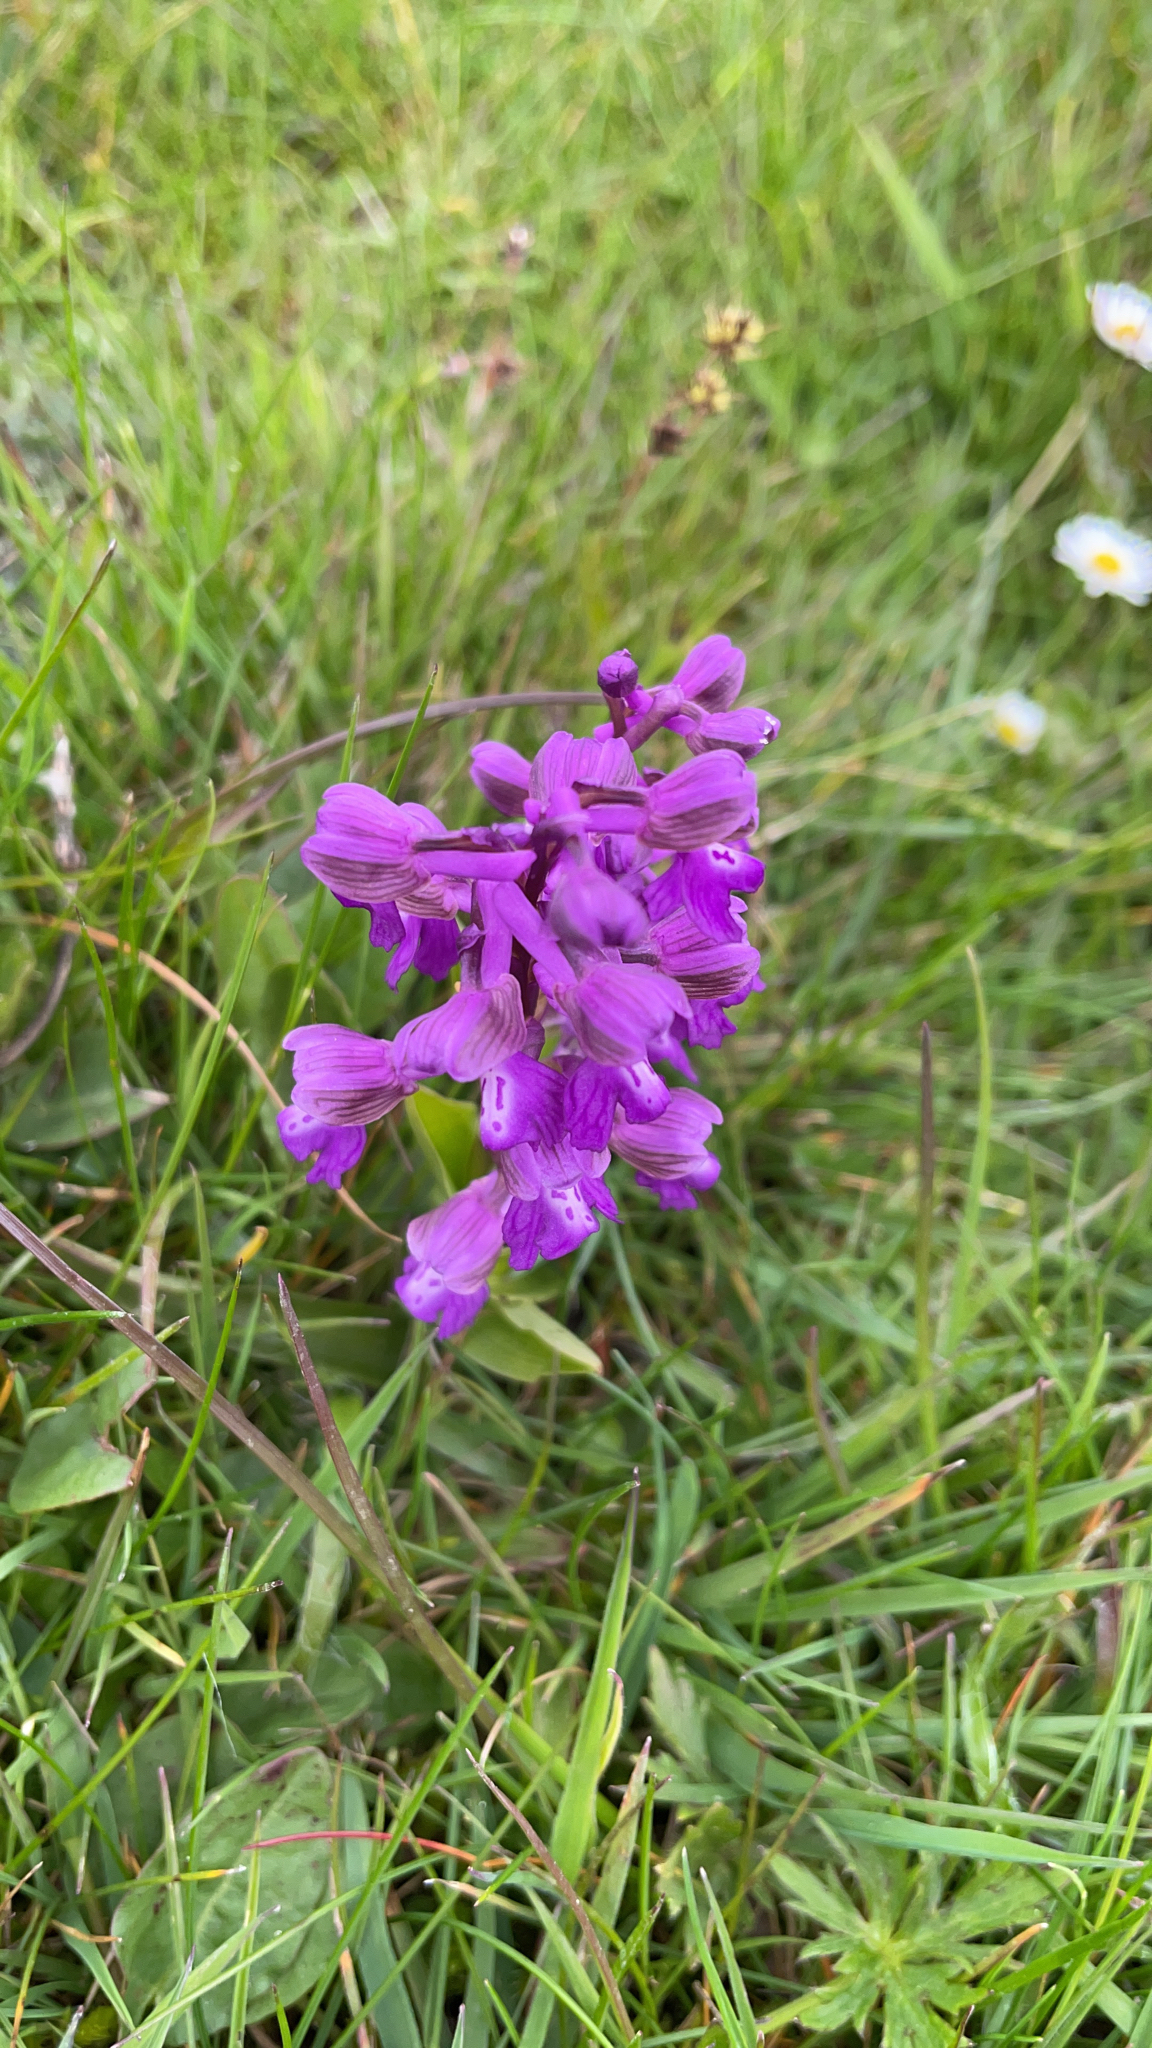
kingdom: Plantae
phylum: Tracheophyta
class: Liliopsida
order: Asparagales
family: Orchidaceae
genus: Anacamptis
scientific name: Anacamptis morio
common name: Green-winged orchid
